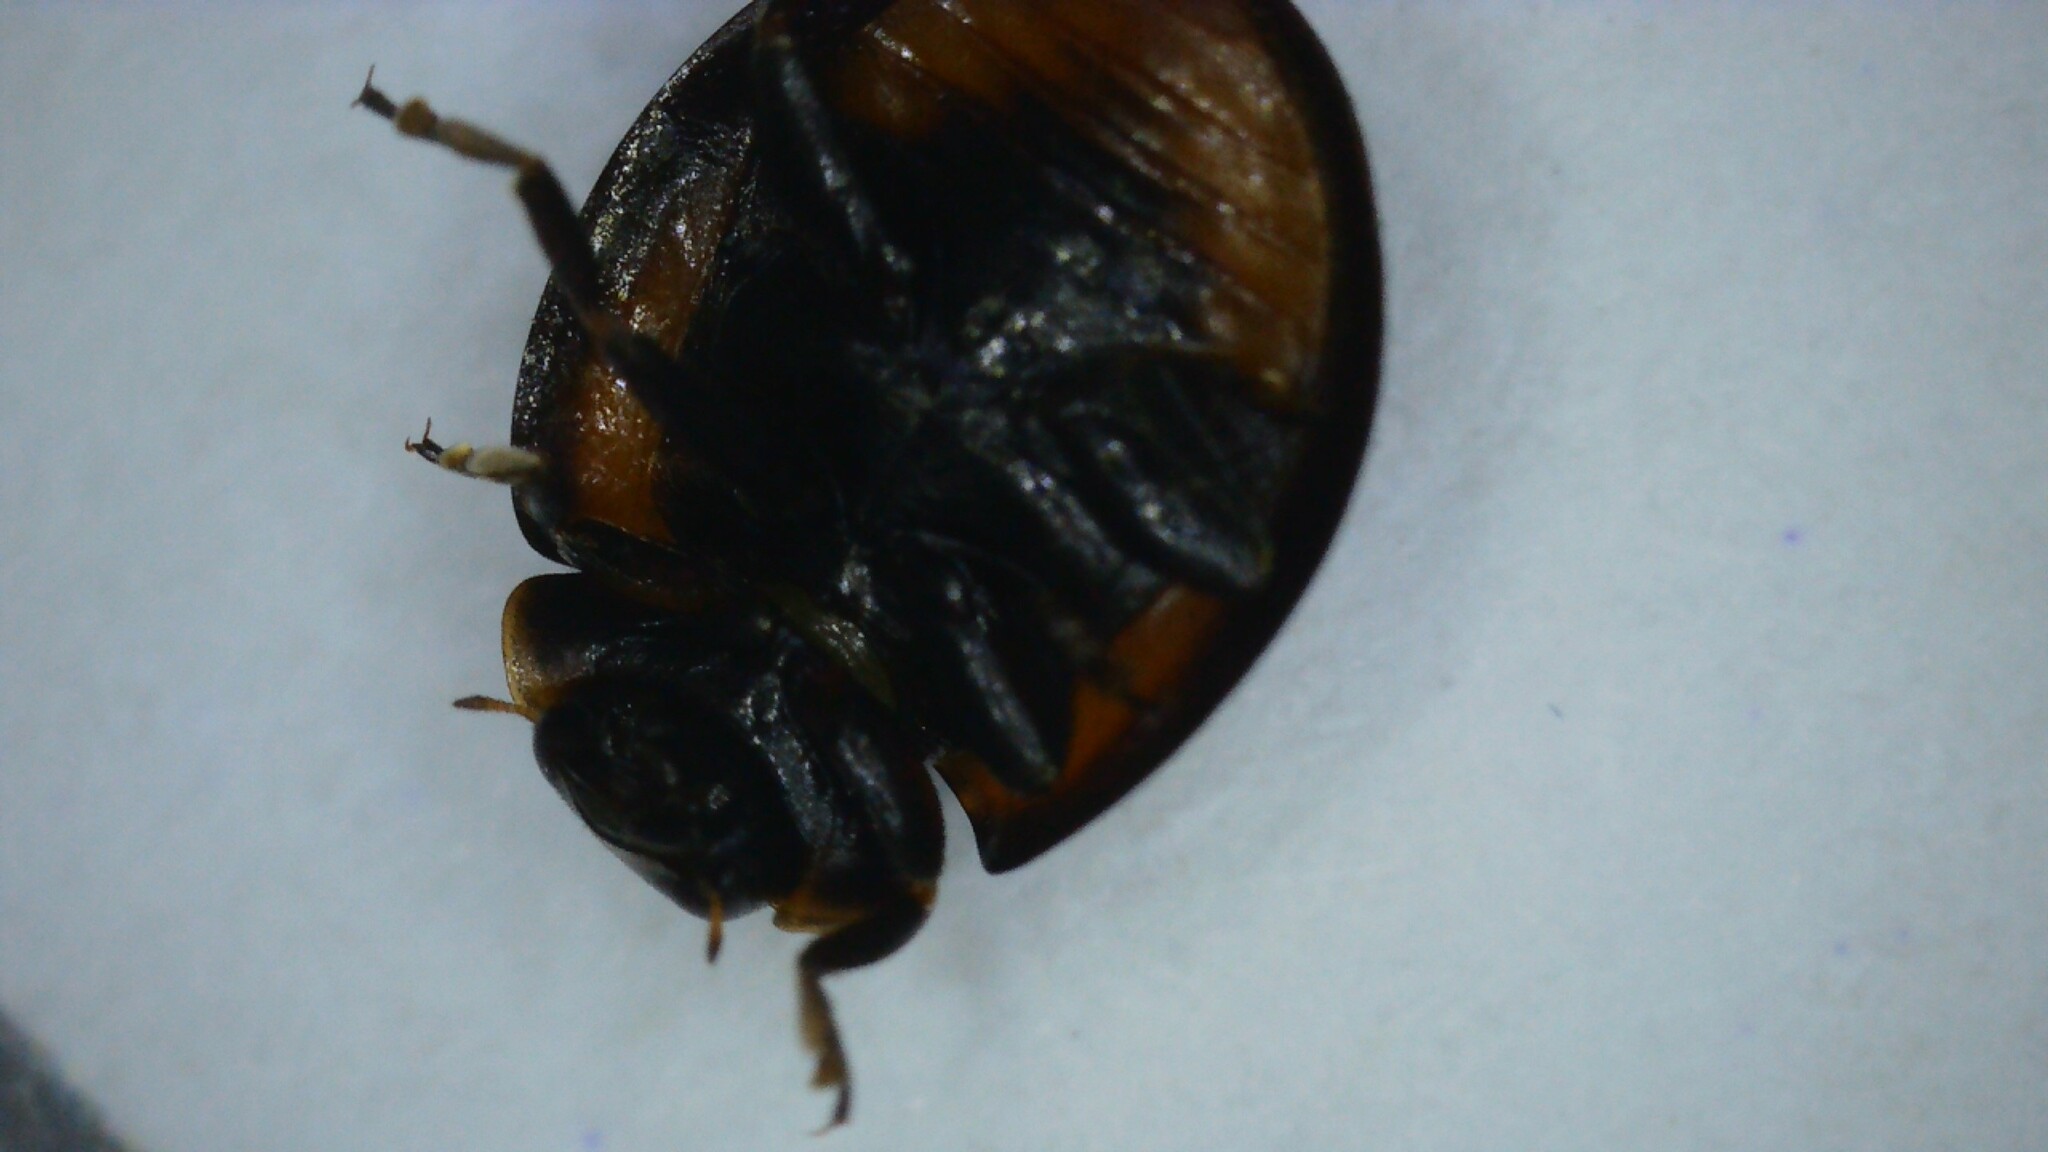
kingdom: Animalia
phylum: Arthropoda
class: Insecta
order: Coleoptera
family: Coccinellidae
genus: Brumus
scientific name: Brumus quadripustulatus
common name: Ladybird beetle
